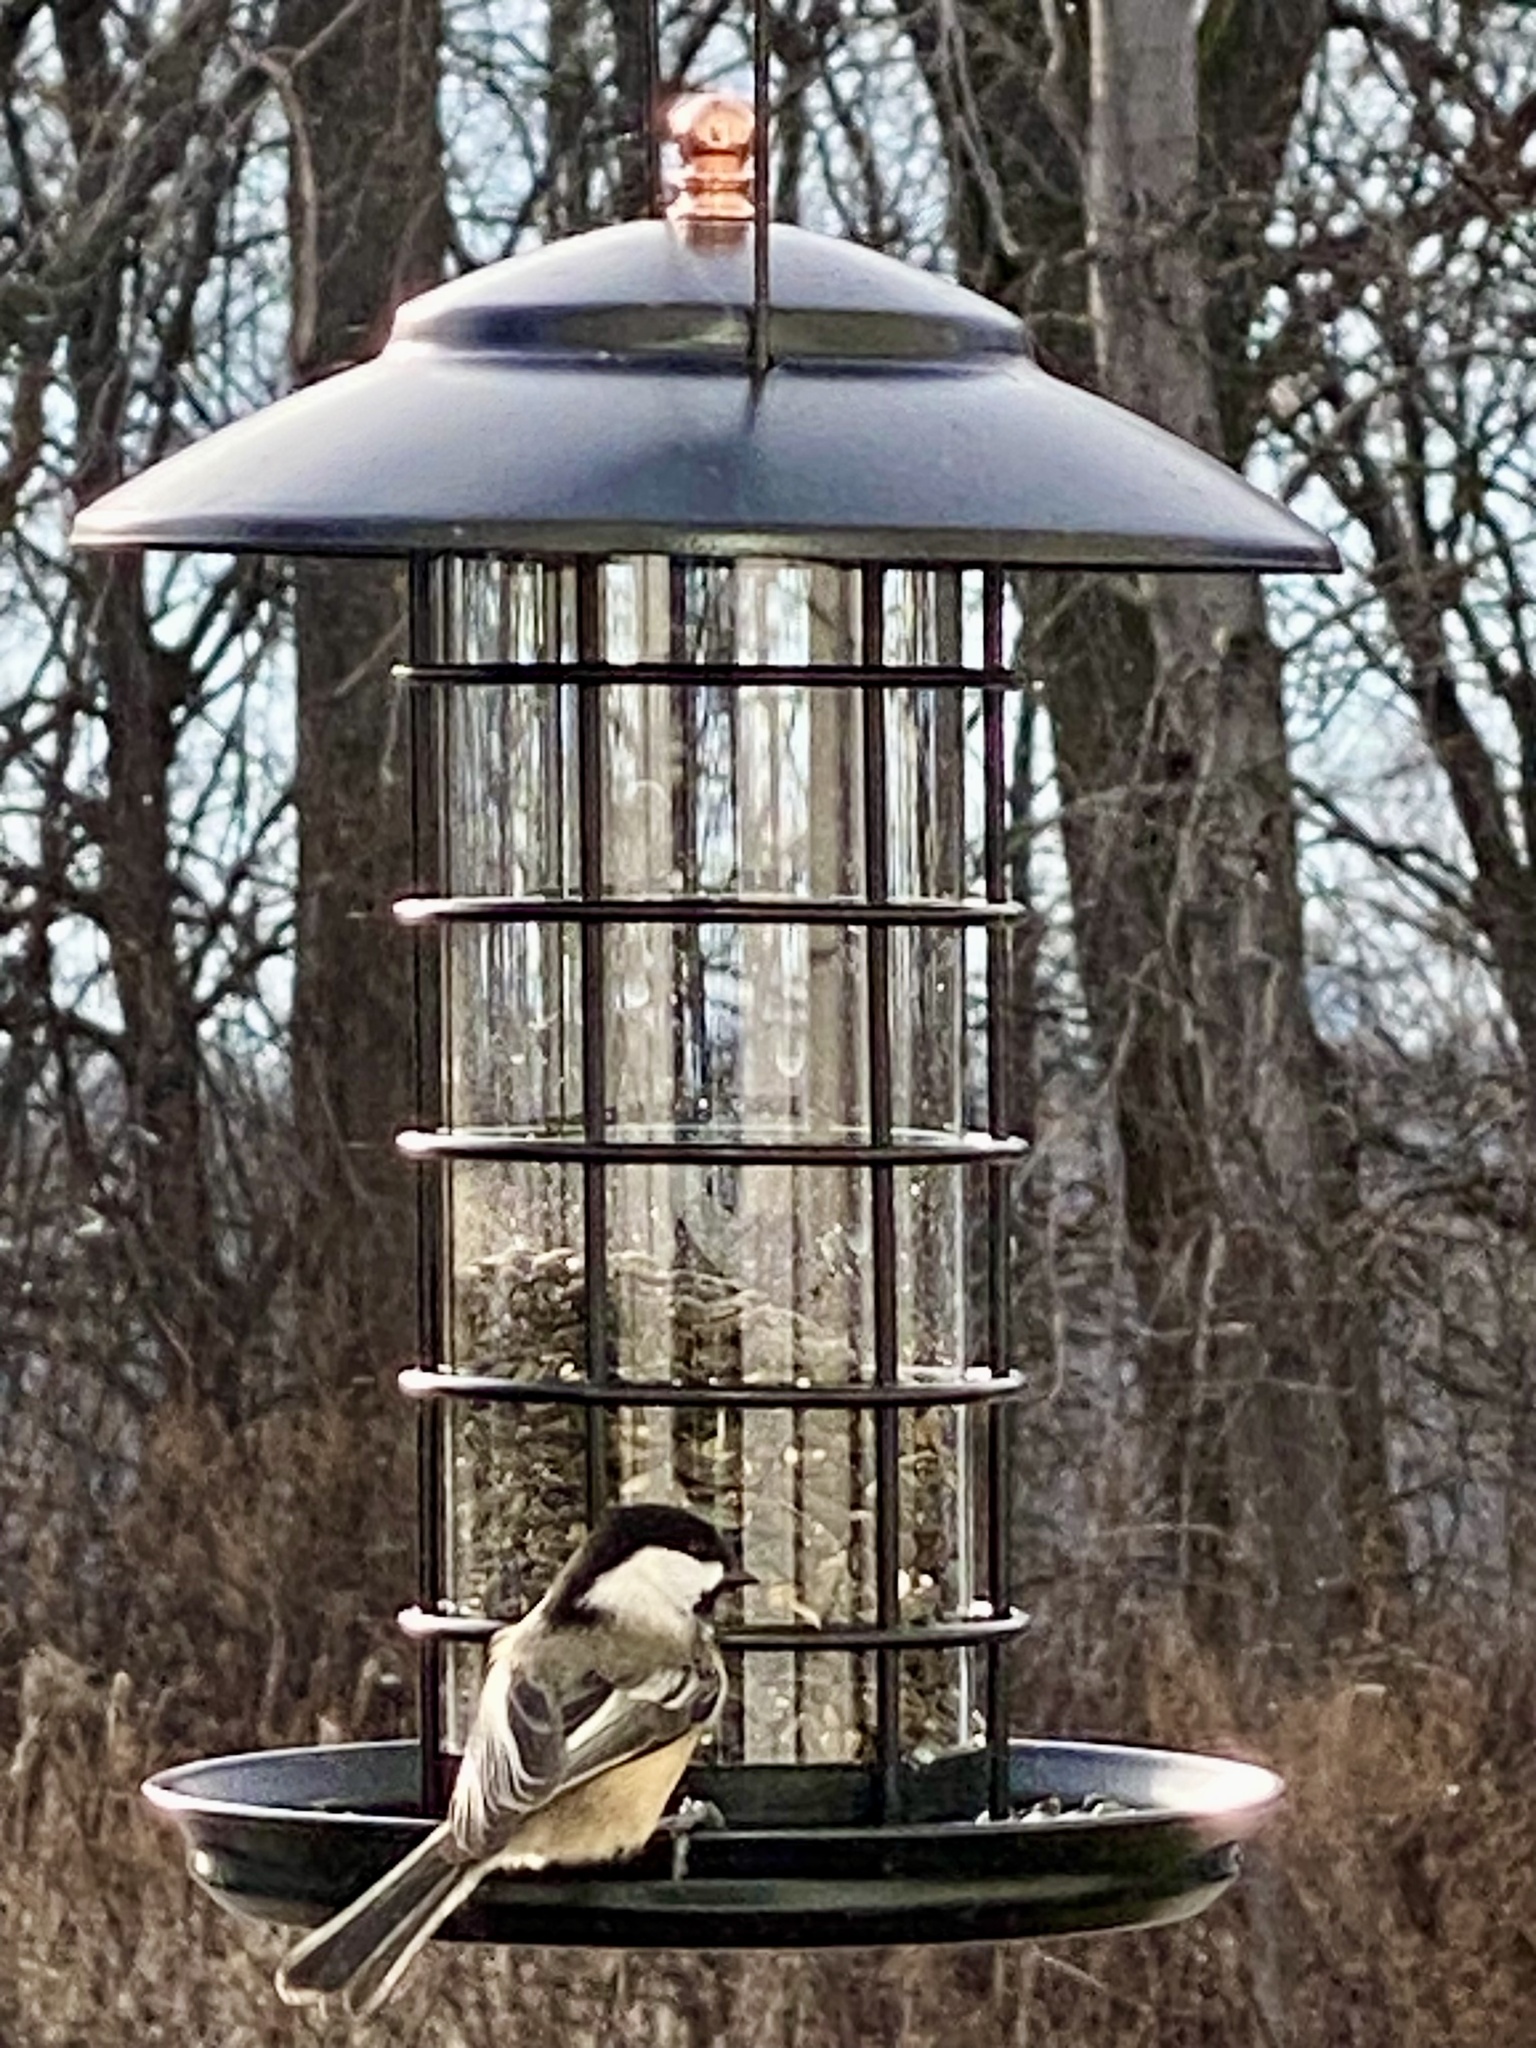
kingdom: Animalia
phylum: Chordata
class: Aves
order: Passeriformes
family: Paridae
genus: Poecile
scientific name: Poecile atricapillus
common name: Black-capped chickadee
